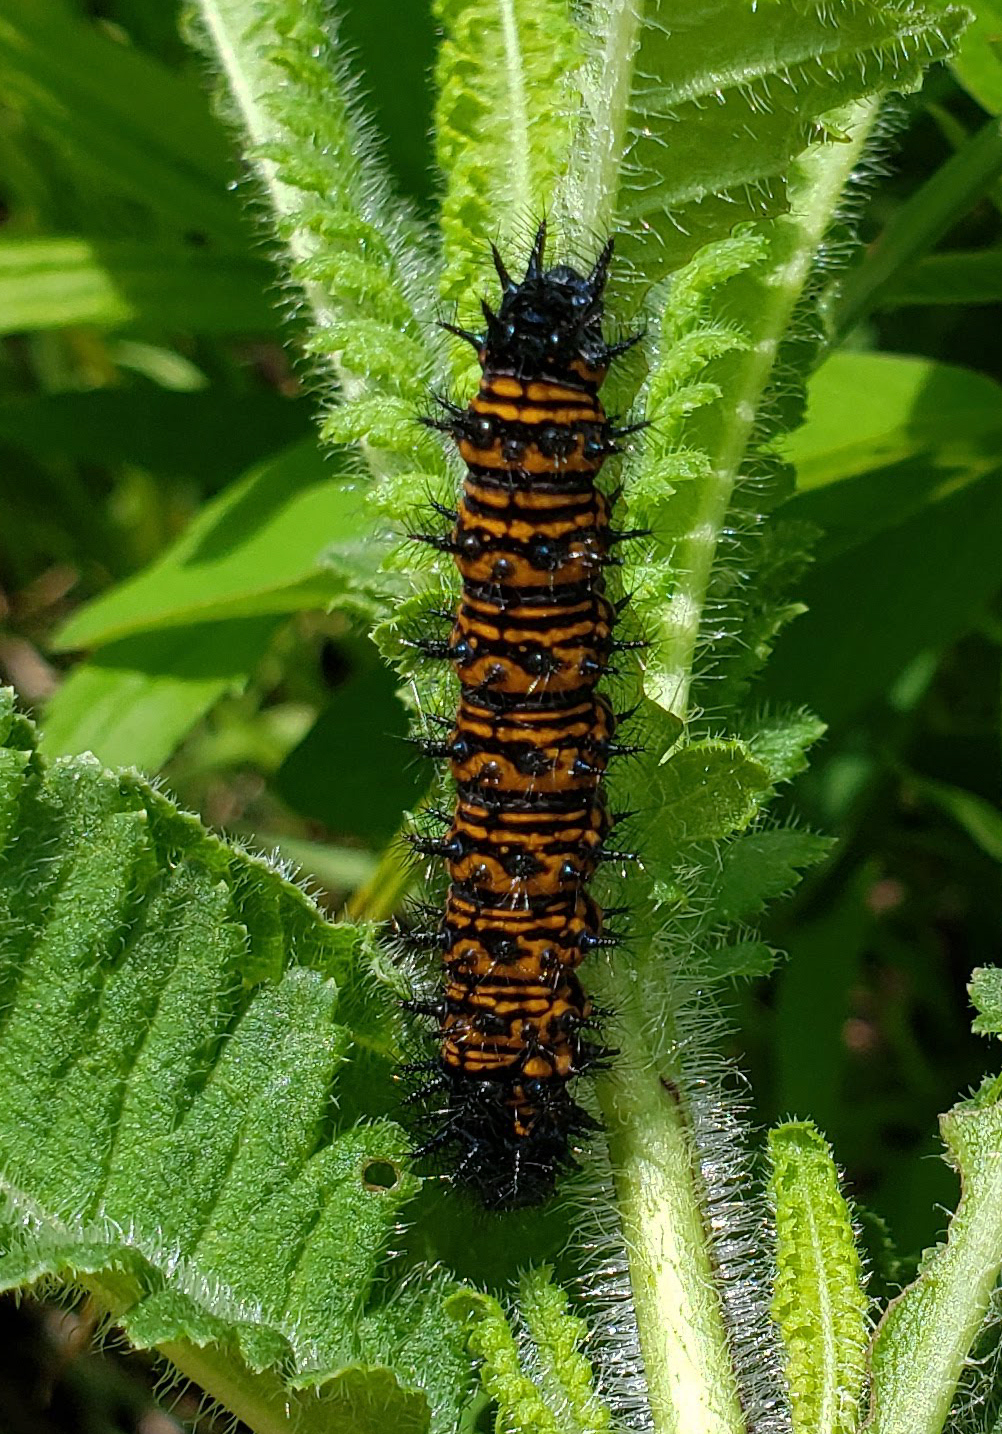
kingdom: Animalia
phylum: Arthropoda
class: Insecta
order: Lepidoptera
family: Nymphalidae
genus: Euphydryas
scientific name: Euphydryas phaeton
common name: Baltimore checkerspot
